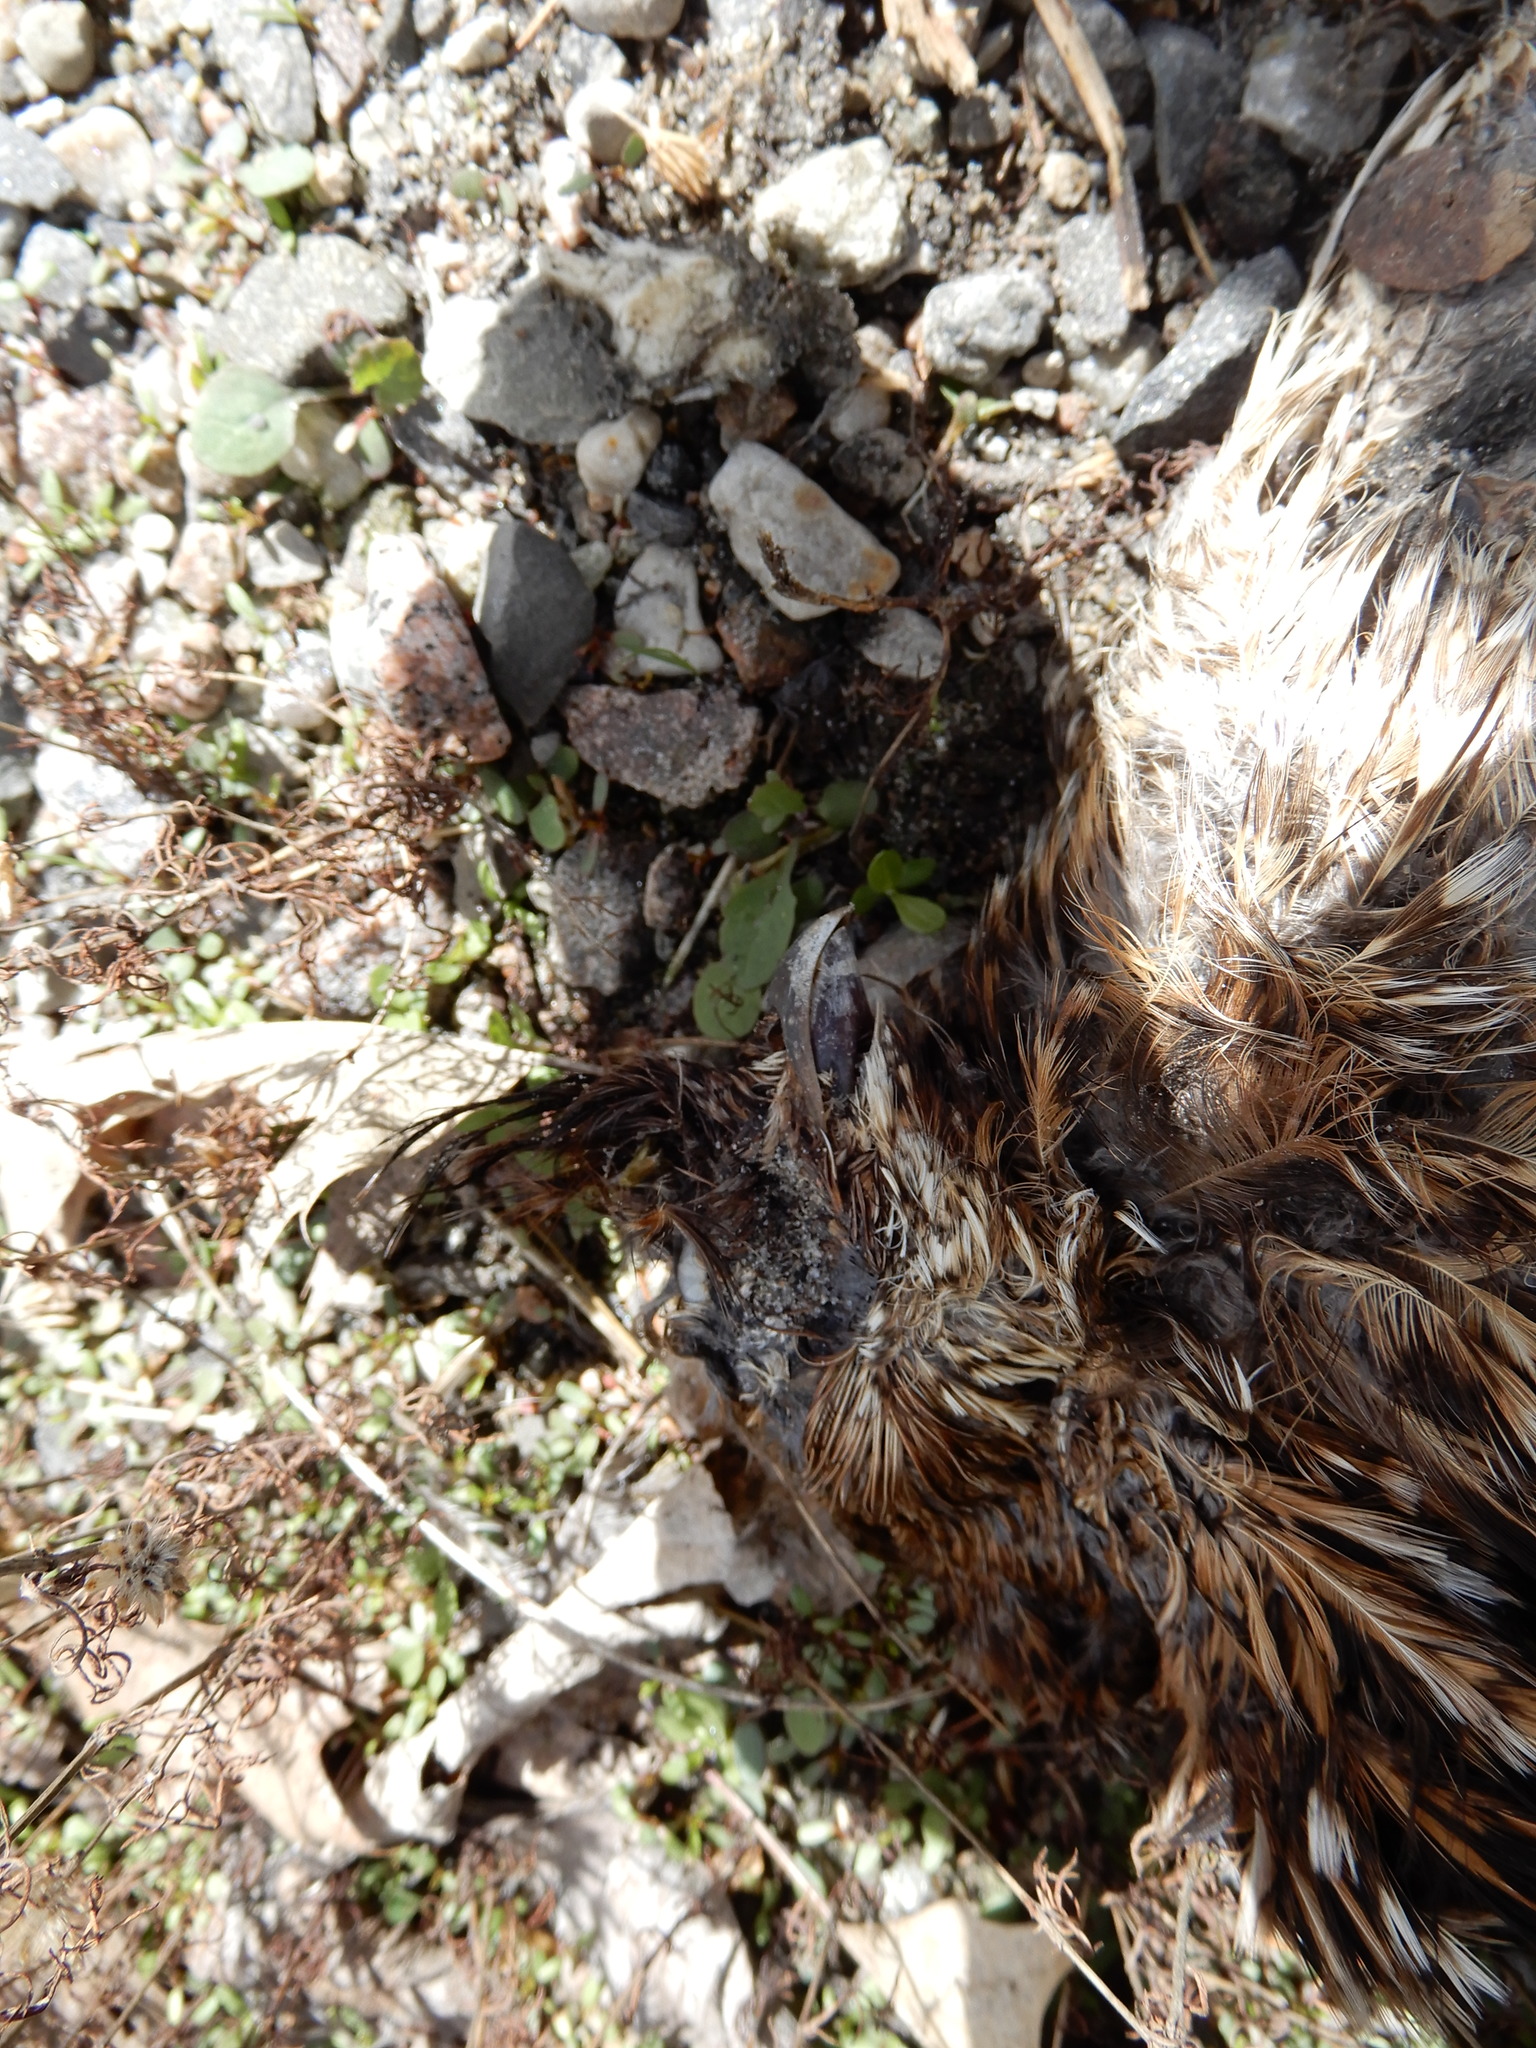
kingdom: Animalia
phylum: Chordata
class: Aves
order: Galliformes
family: Phasianidae
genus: Bonasa
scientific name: Bonasa umbellus
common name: Ruffed grouse
